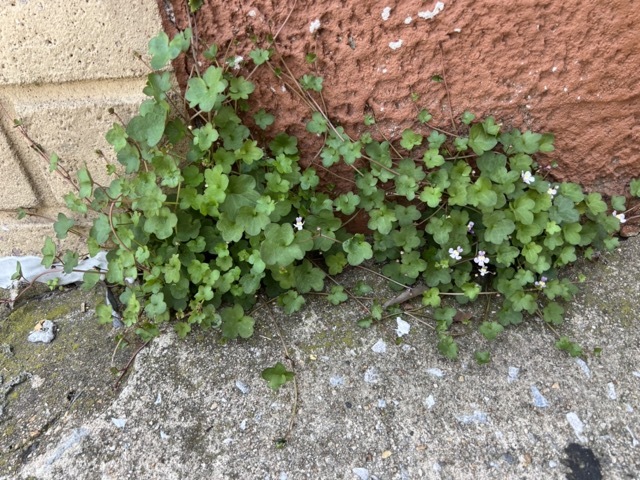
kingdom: Plantae
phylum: Tracheophyta
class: Magnoliopsida
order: Lamiales
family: Plantaginaceae
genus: Cymbalaria
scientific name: Cymbalaria muralis
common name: Ivy-leaved toadflax
